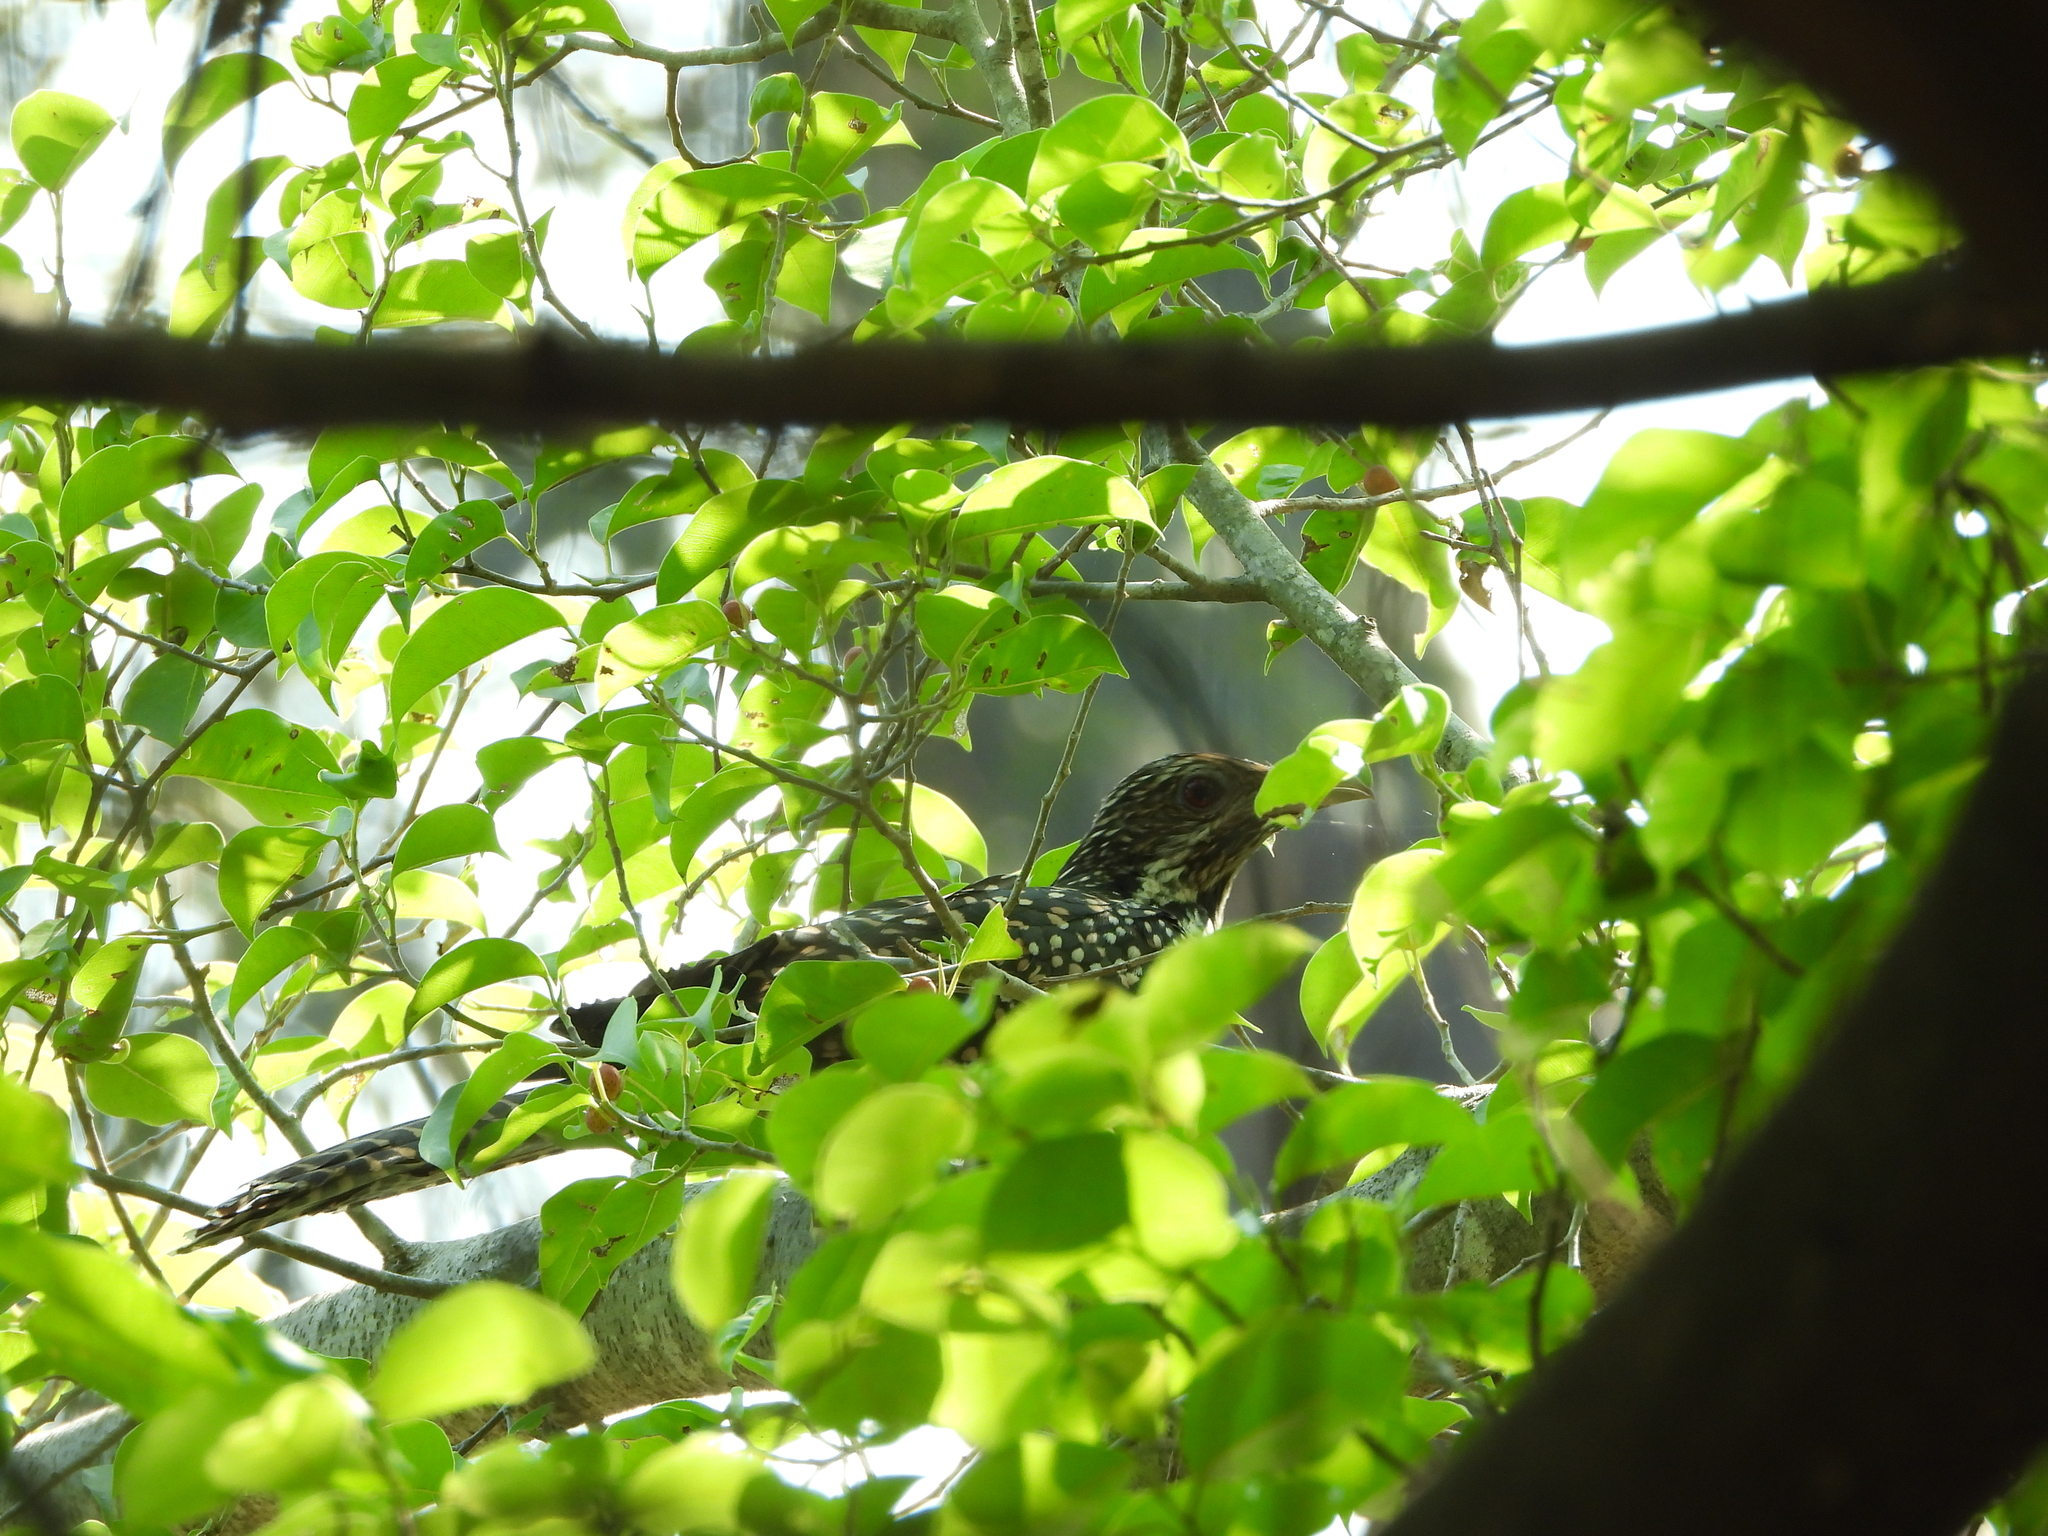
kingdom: Animalia
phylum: Chordata
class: Aves
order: Cuculiformes
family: Cuculidae
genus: Eudynamys
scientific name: Eudynamys scolopaceus
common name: Asian koel
